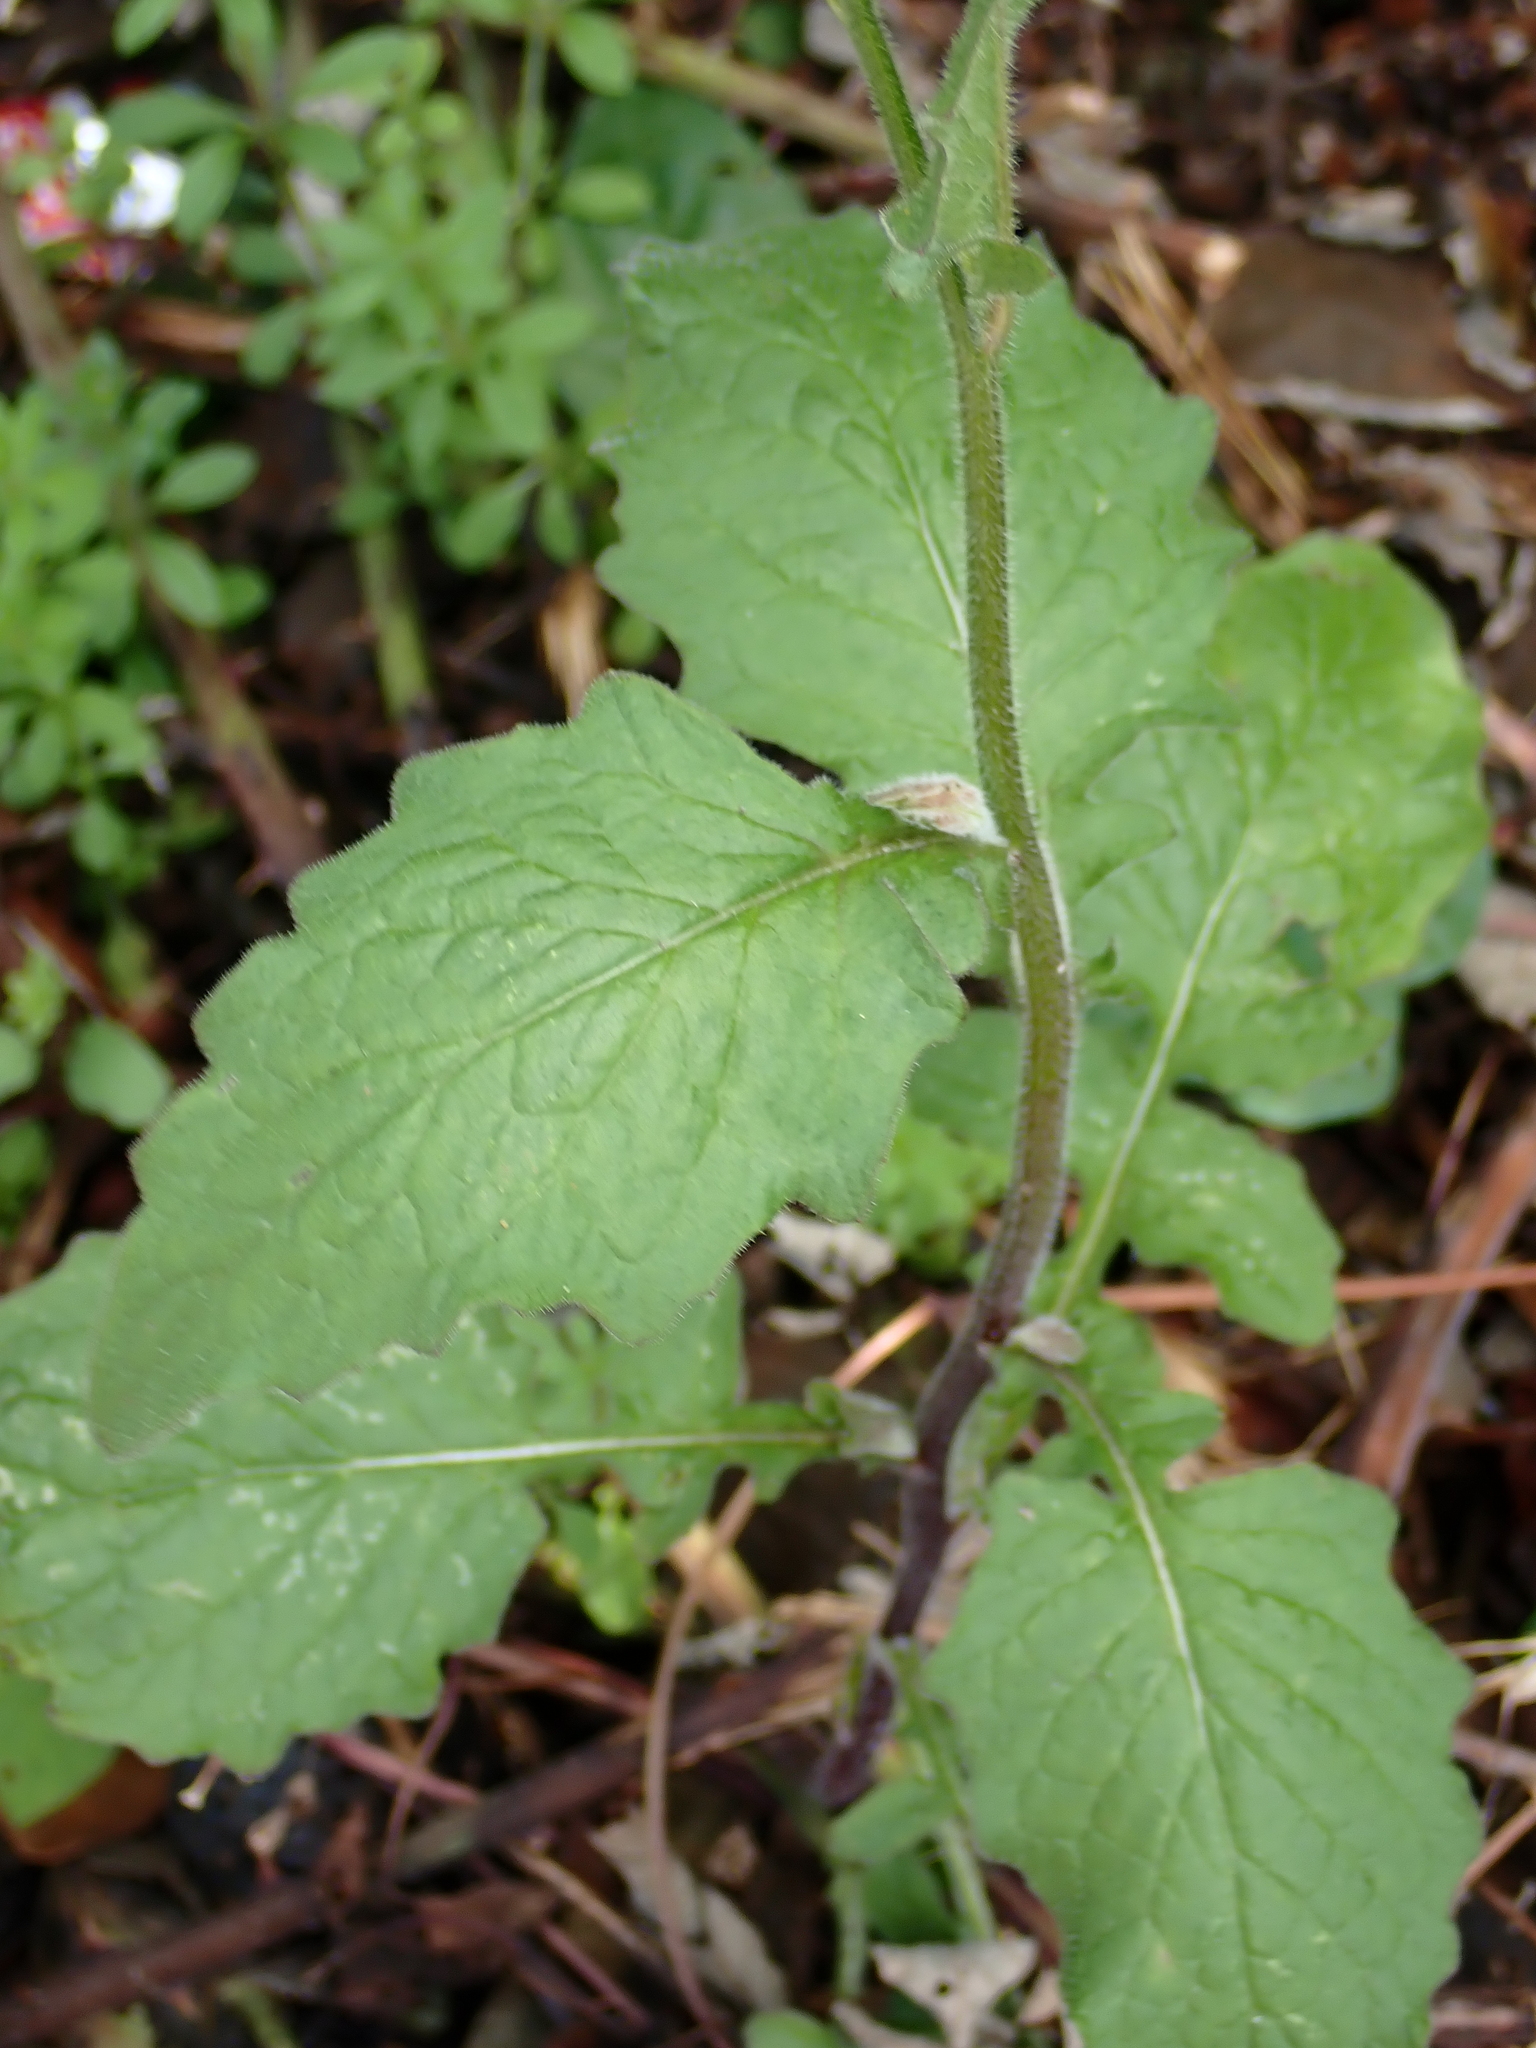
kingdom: Plantae
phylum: Tracheophyta
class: Magnoliopsida
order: Asterales
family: Asteraceae
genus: Lapsana
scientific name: Lapsana communis
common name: Nipplewort
